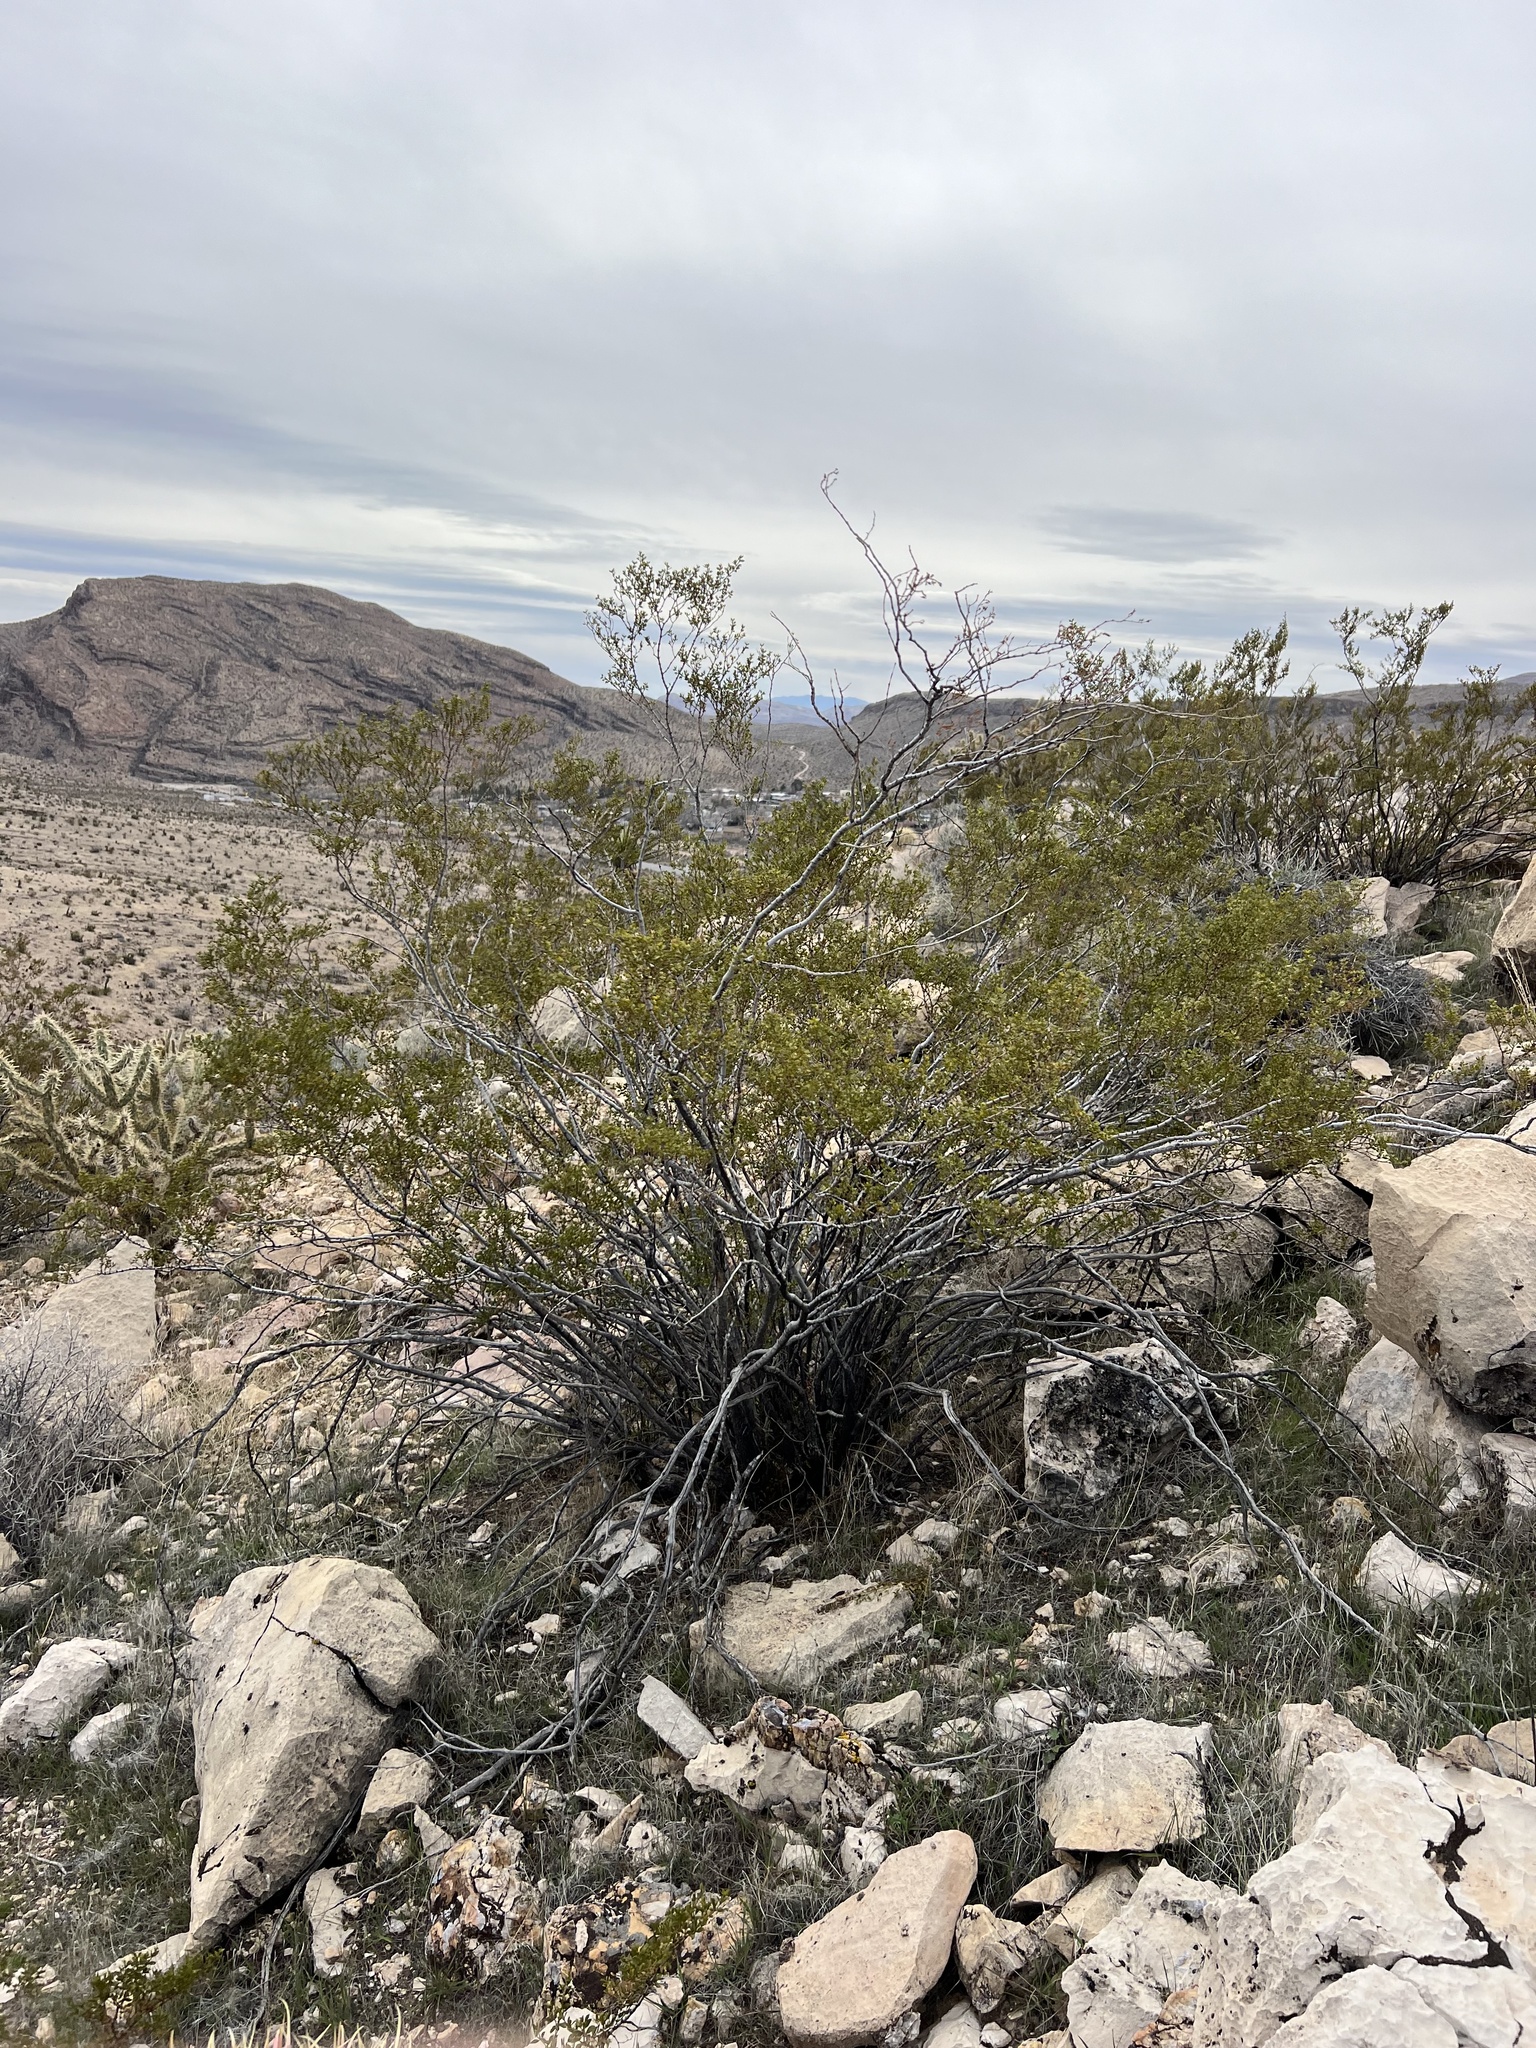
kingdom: Plantae
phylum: Tracheophyta
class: Magnoliopsida
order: Zygophyllales
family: Zygophyllaceae
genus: Larrea
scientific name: Larrea tridentata
